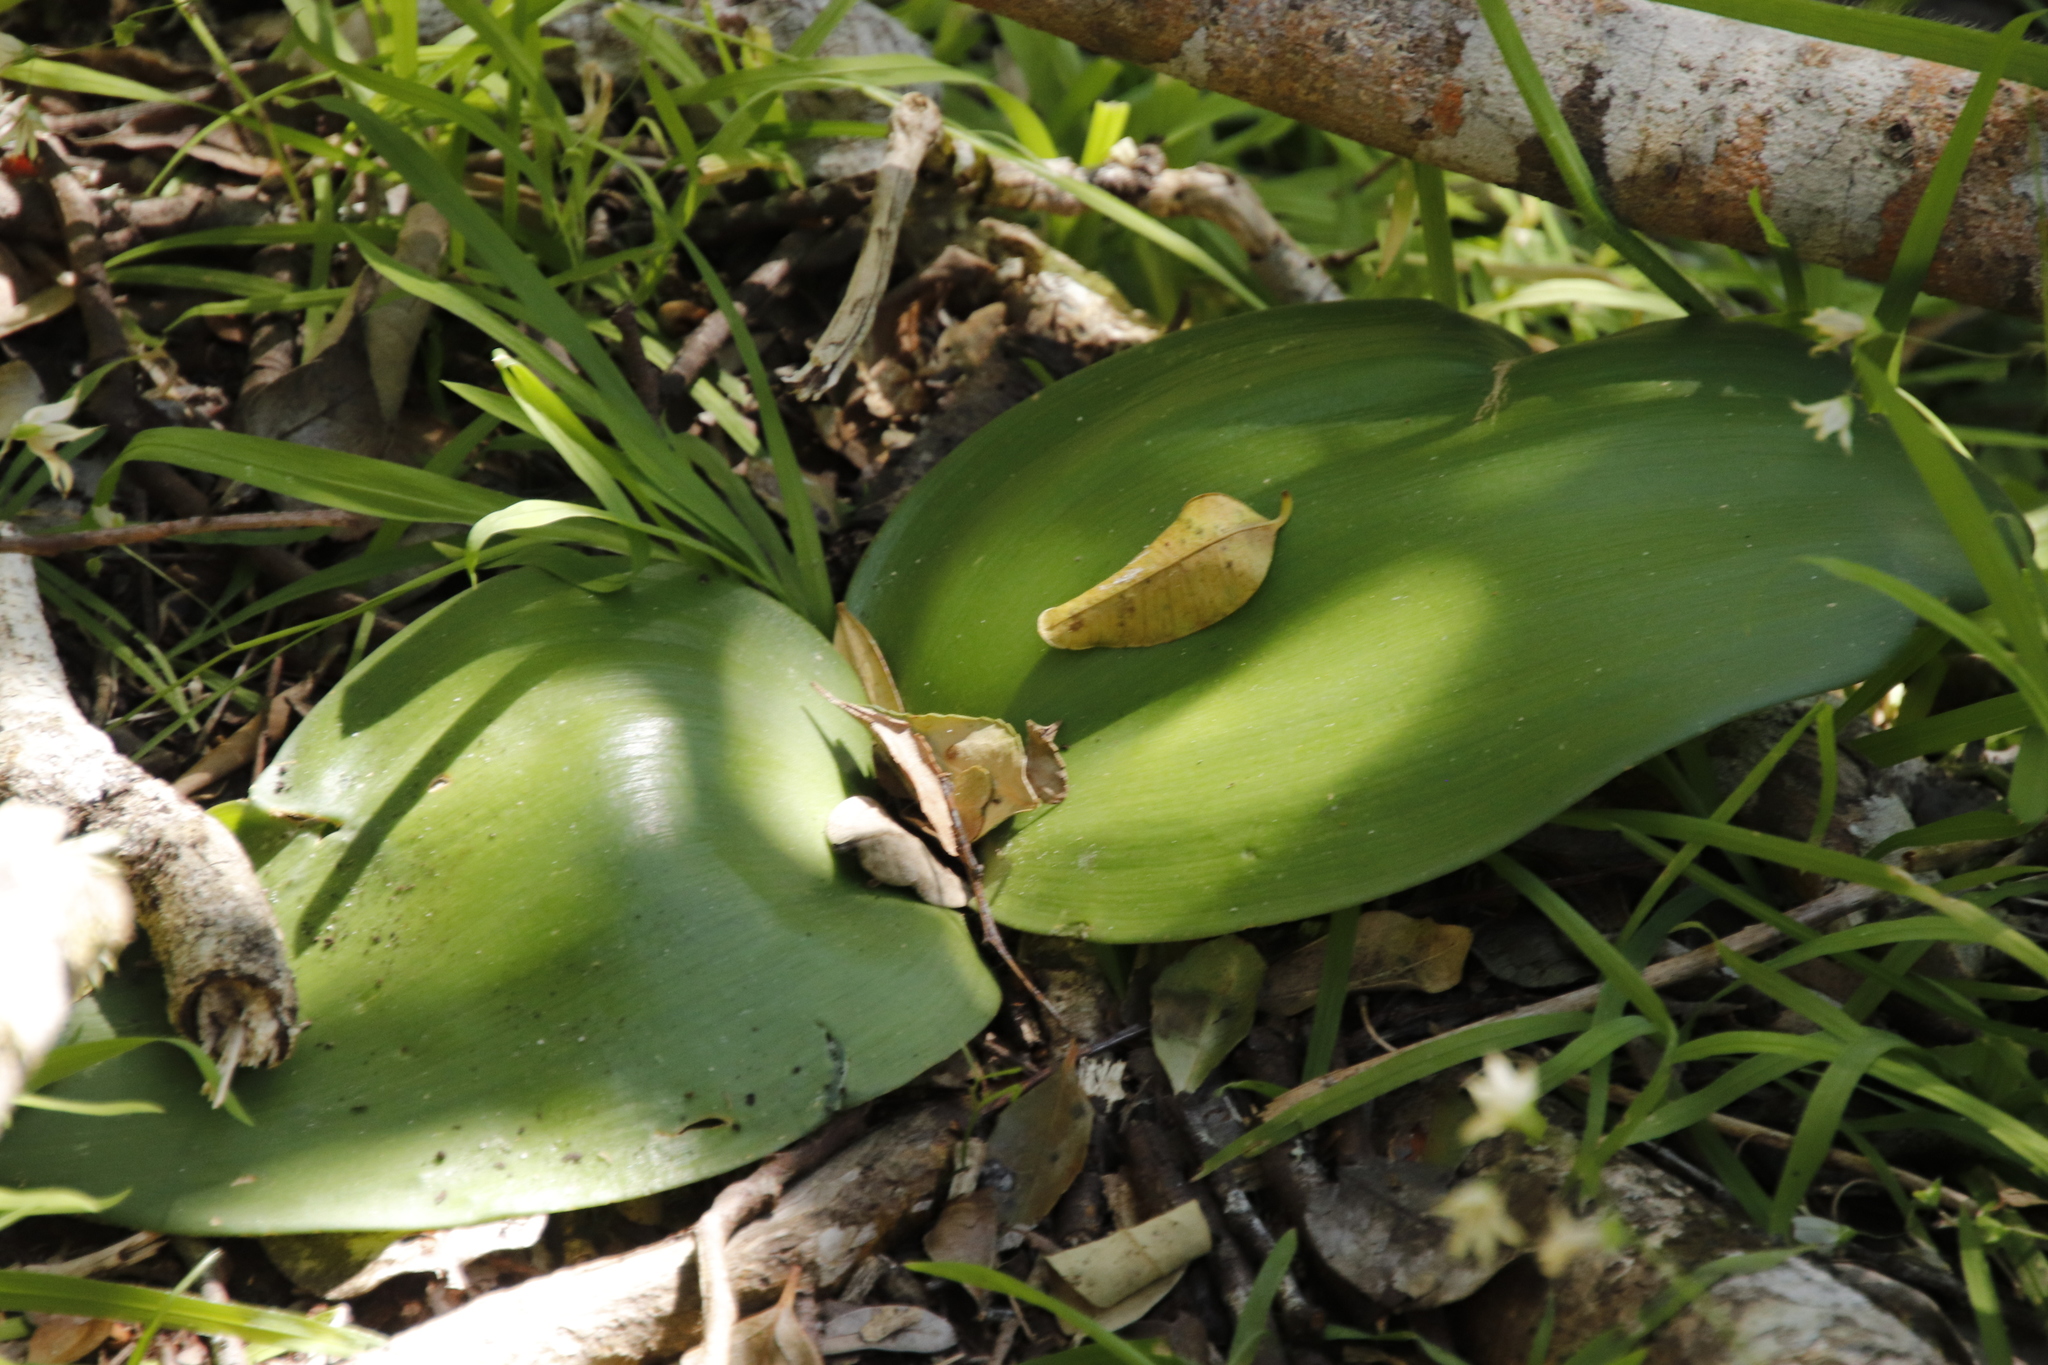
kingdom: Plantae
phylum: Tracheophyta
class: Liliopsida
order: Asparagales
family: Amaryllidaceae
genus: Haemanthus
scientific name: Haemanthus coccineus
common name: Cape-tulip
